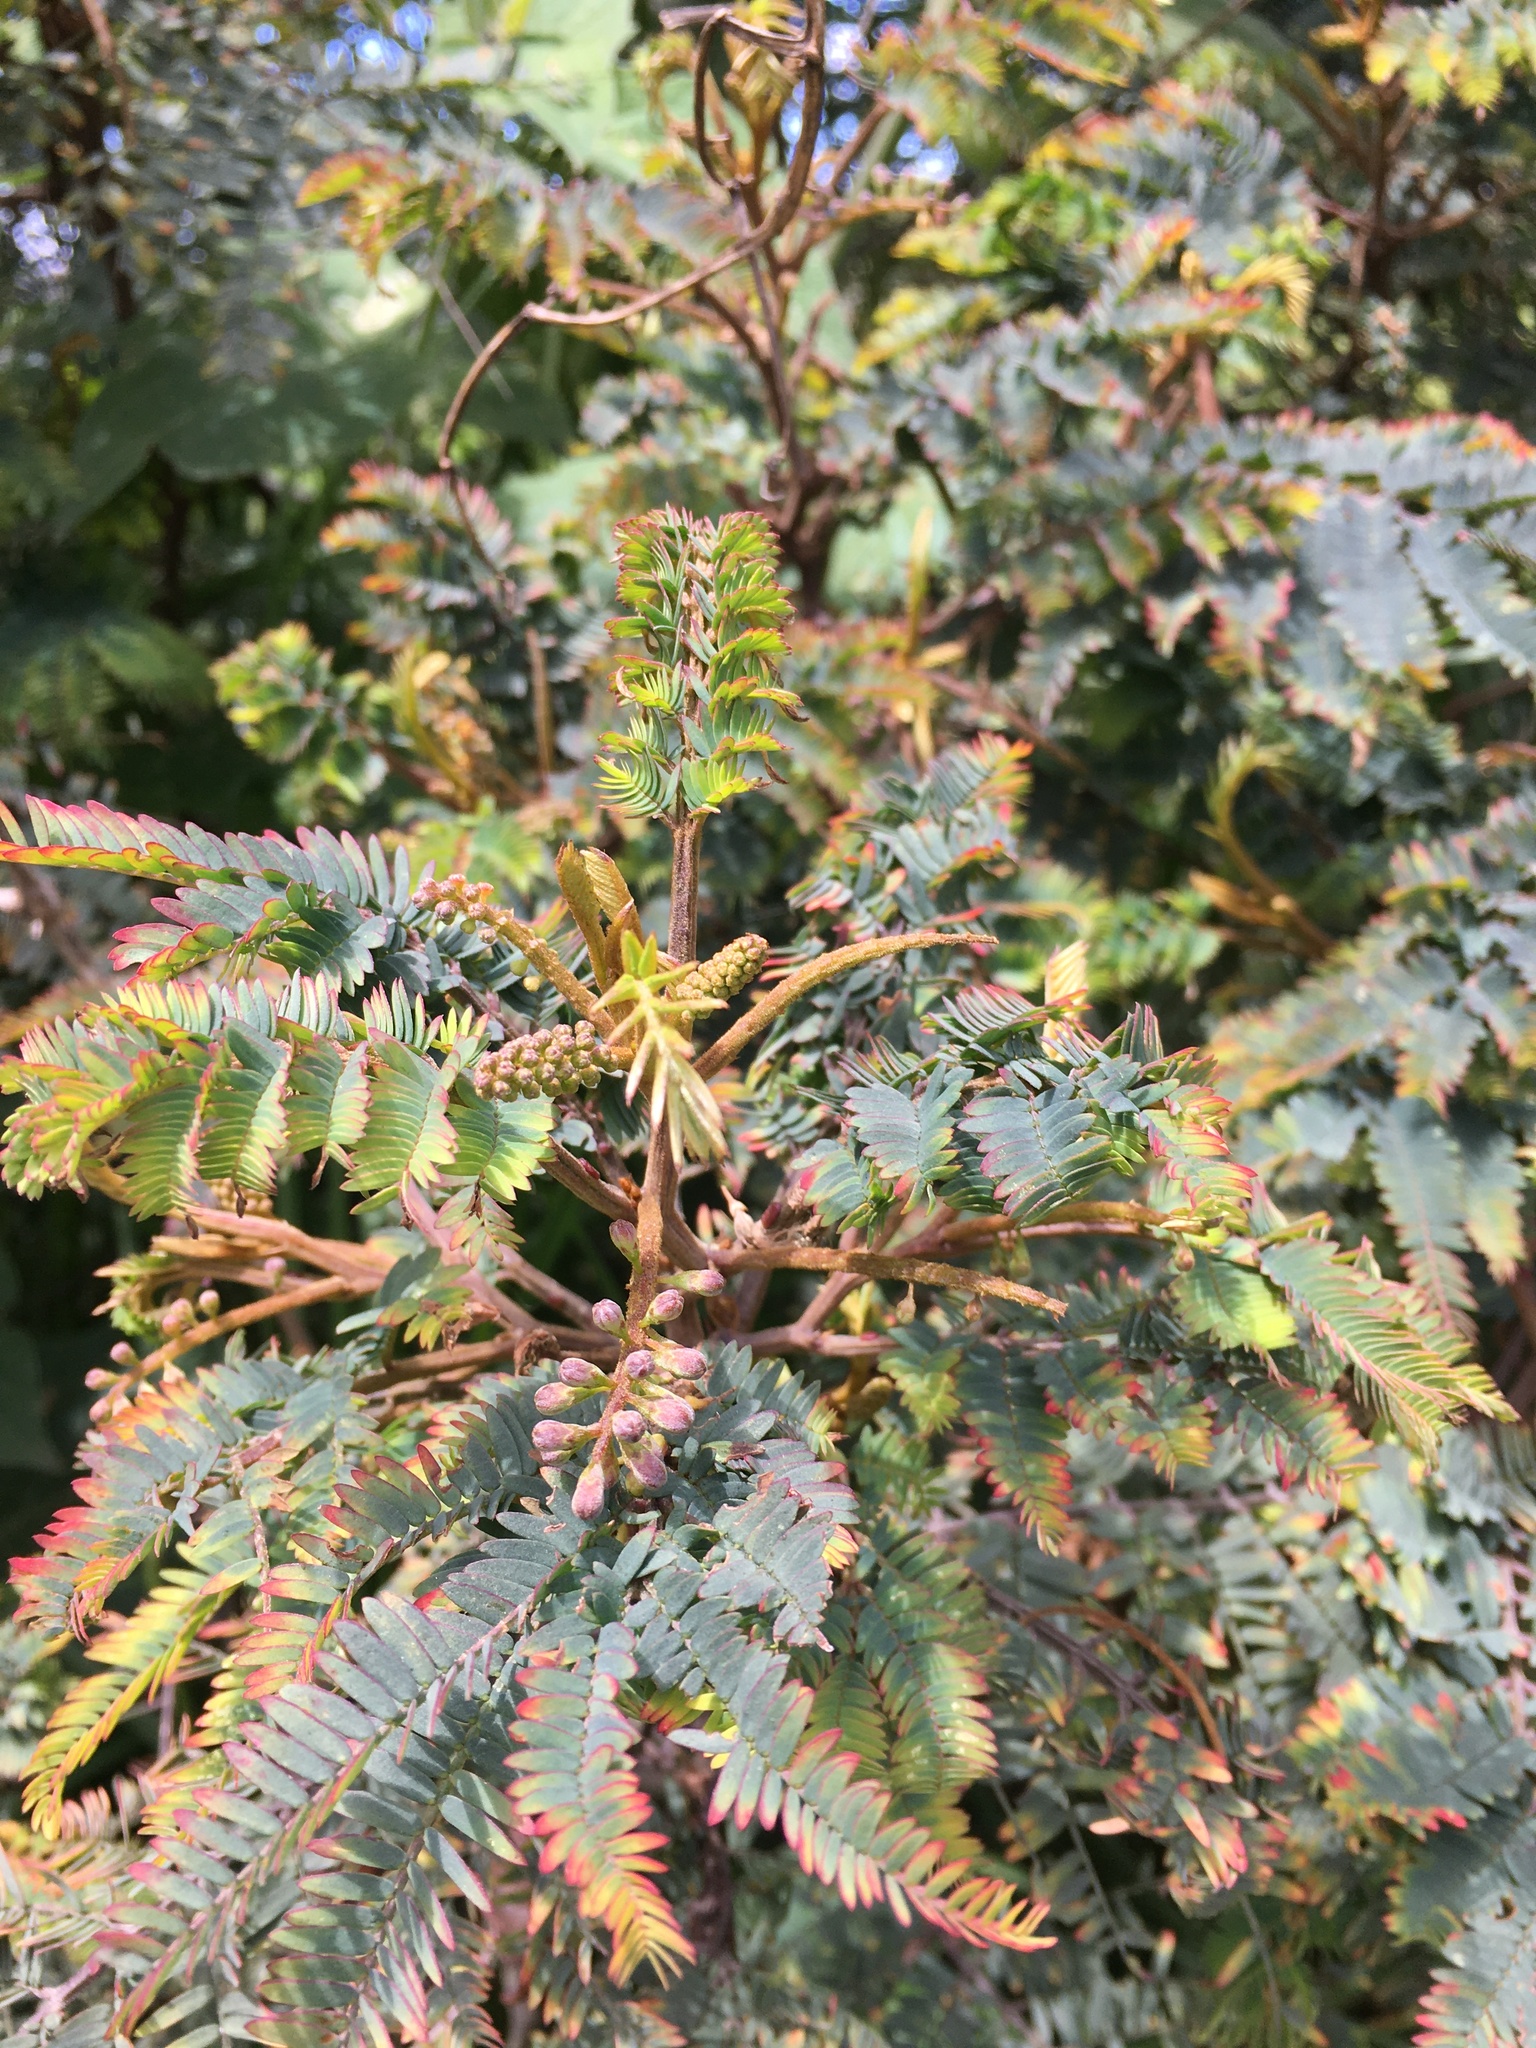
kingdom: Plantae
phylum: Tracheophyta
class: Magnoliopsida
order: Fabales
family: Fabaceae
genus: Paraserianthes
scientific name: Paraserianthes lophantha
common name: Plume albizia
